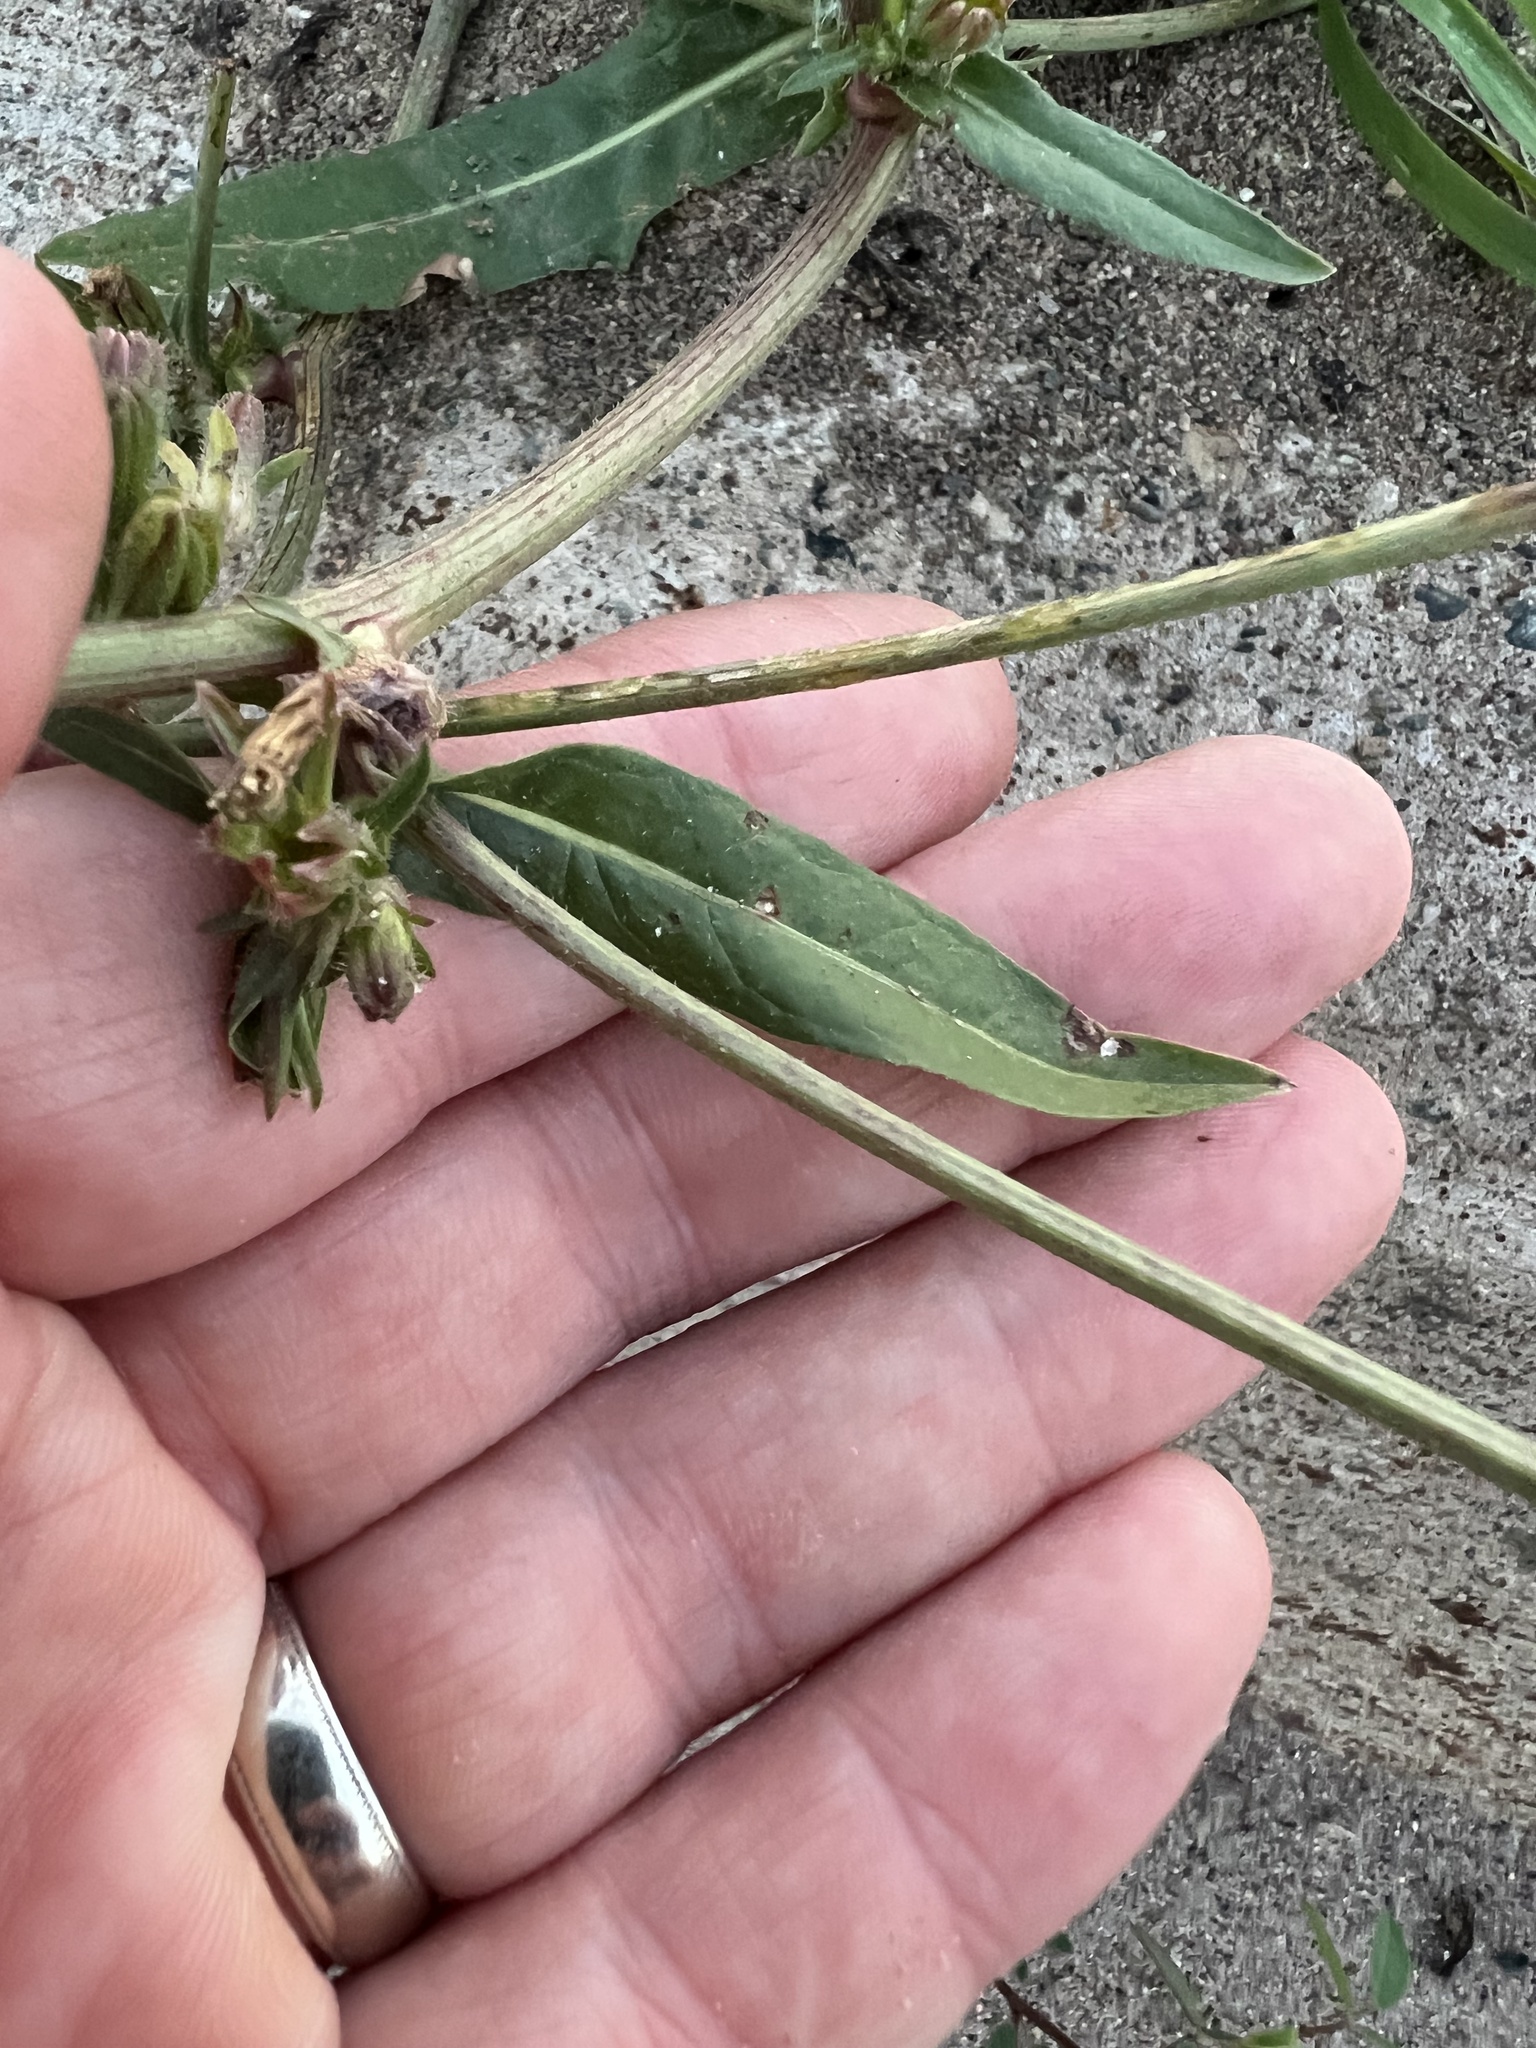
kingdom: Plantae
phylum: Tracheophyta
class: Magnoliopsida
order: Asterales
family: Asteraceae
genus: Cichorium
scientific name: Cichorium intybus
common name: Chicory
